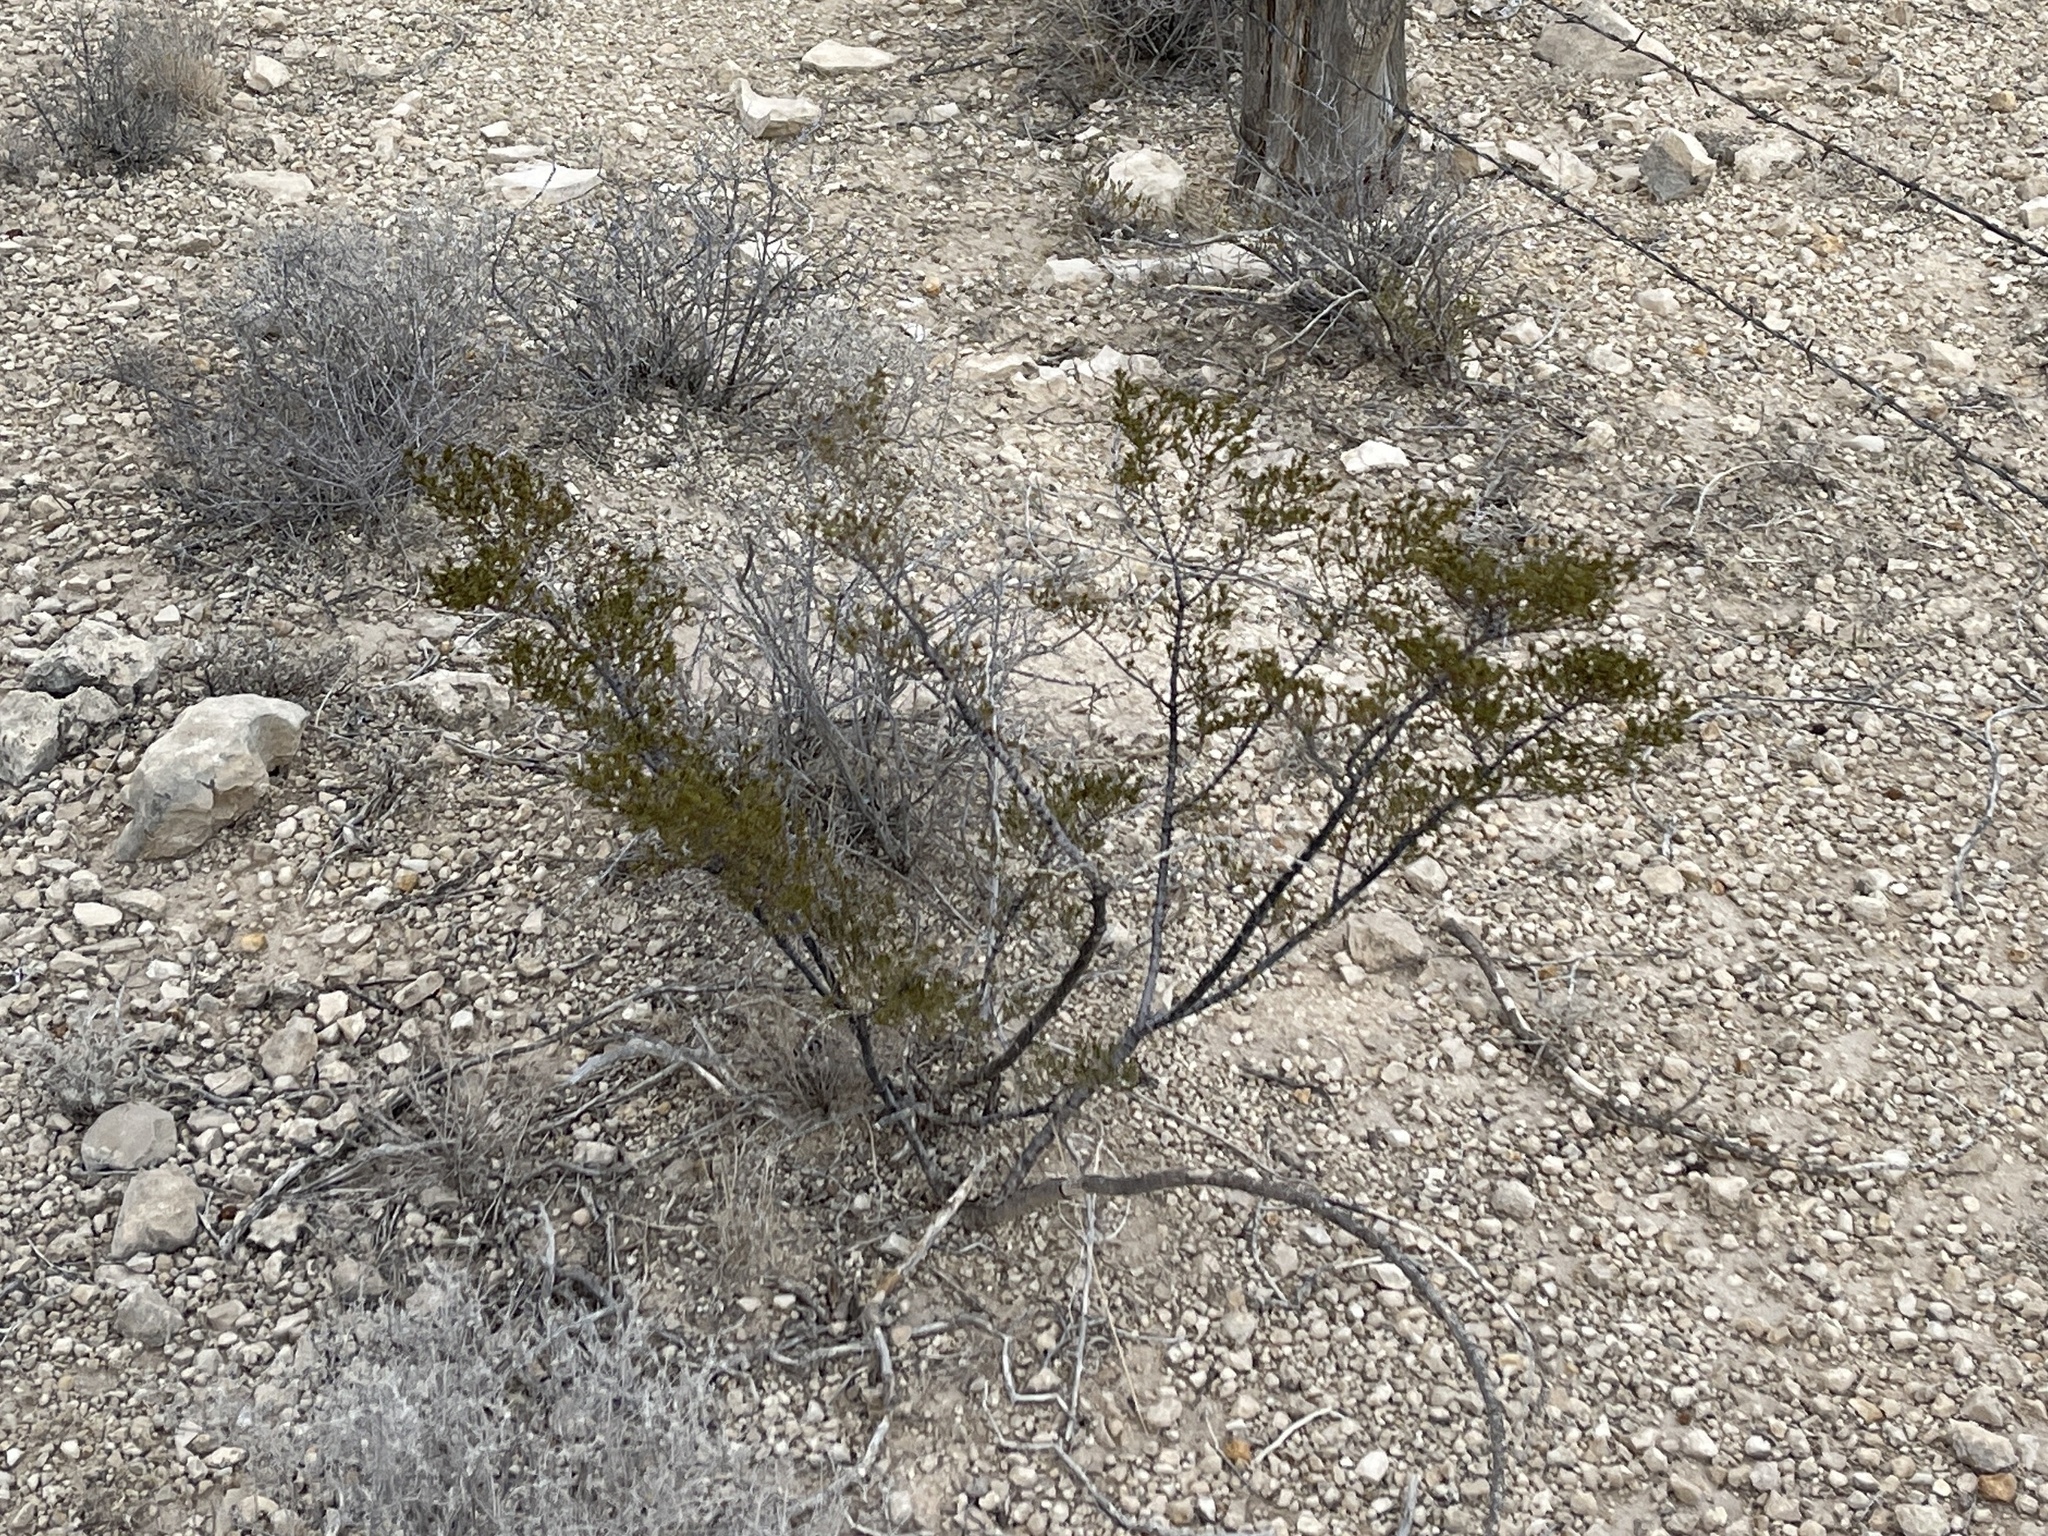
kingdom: Plantae
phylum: Tracheophyta
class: Magnoliopsida
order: Zygophyllales
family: Zygophyllaceae
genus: Larrea
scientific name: Larrea tridentata
